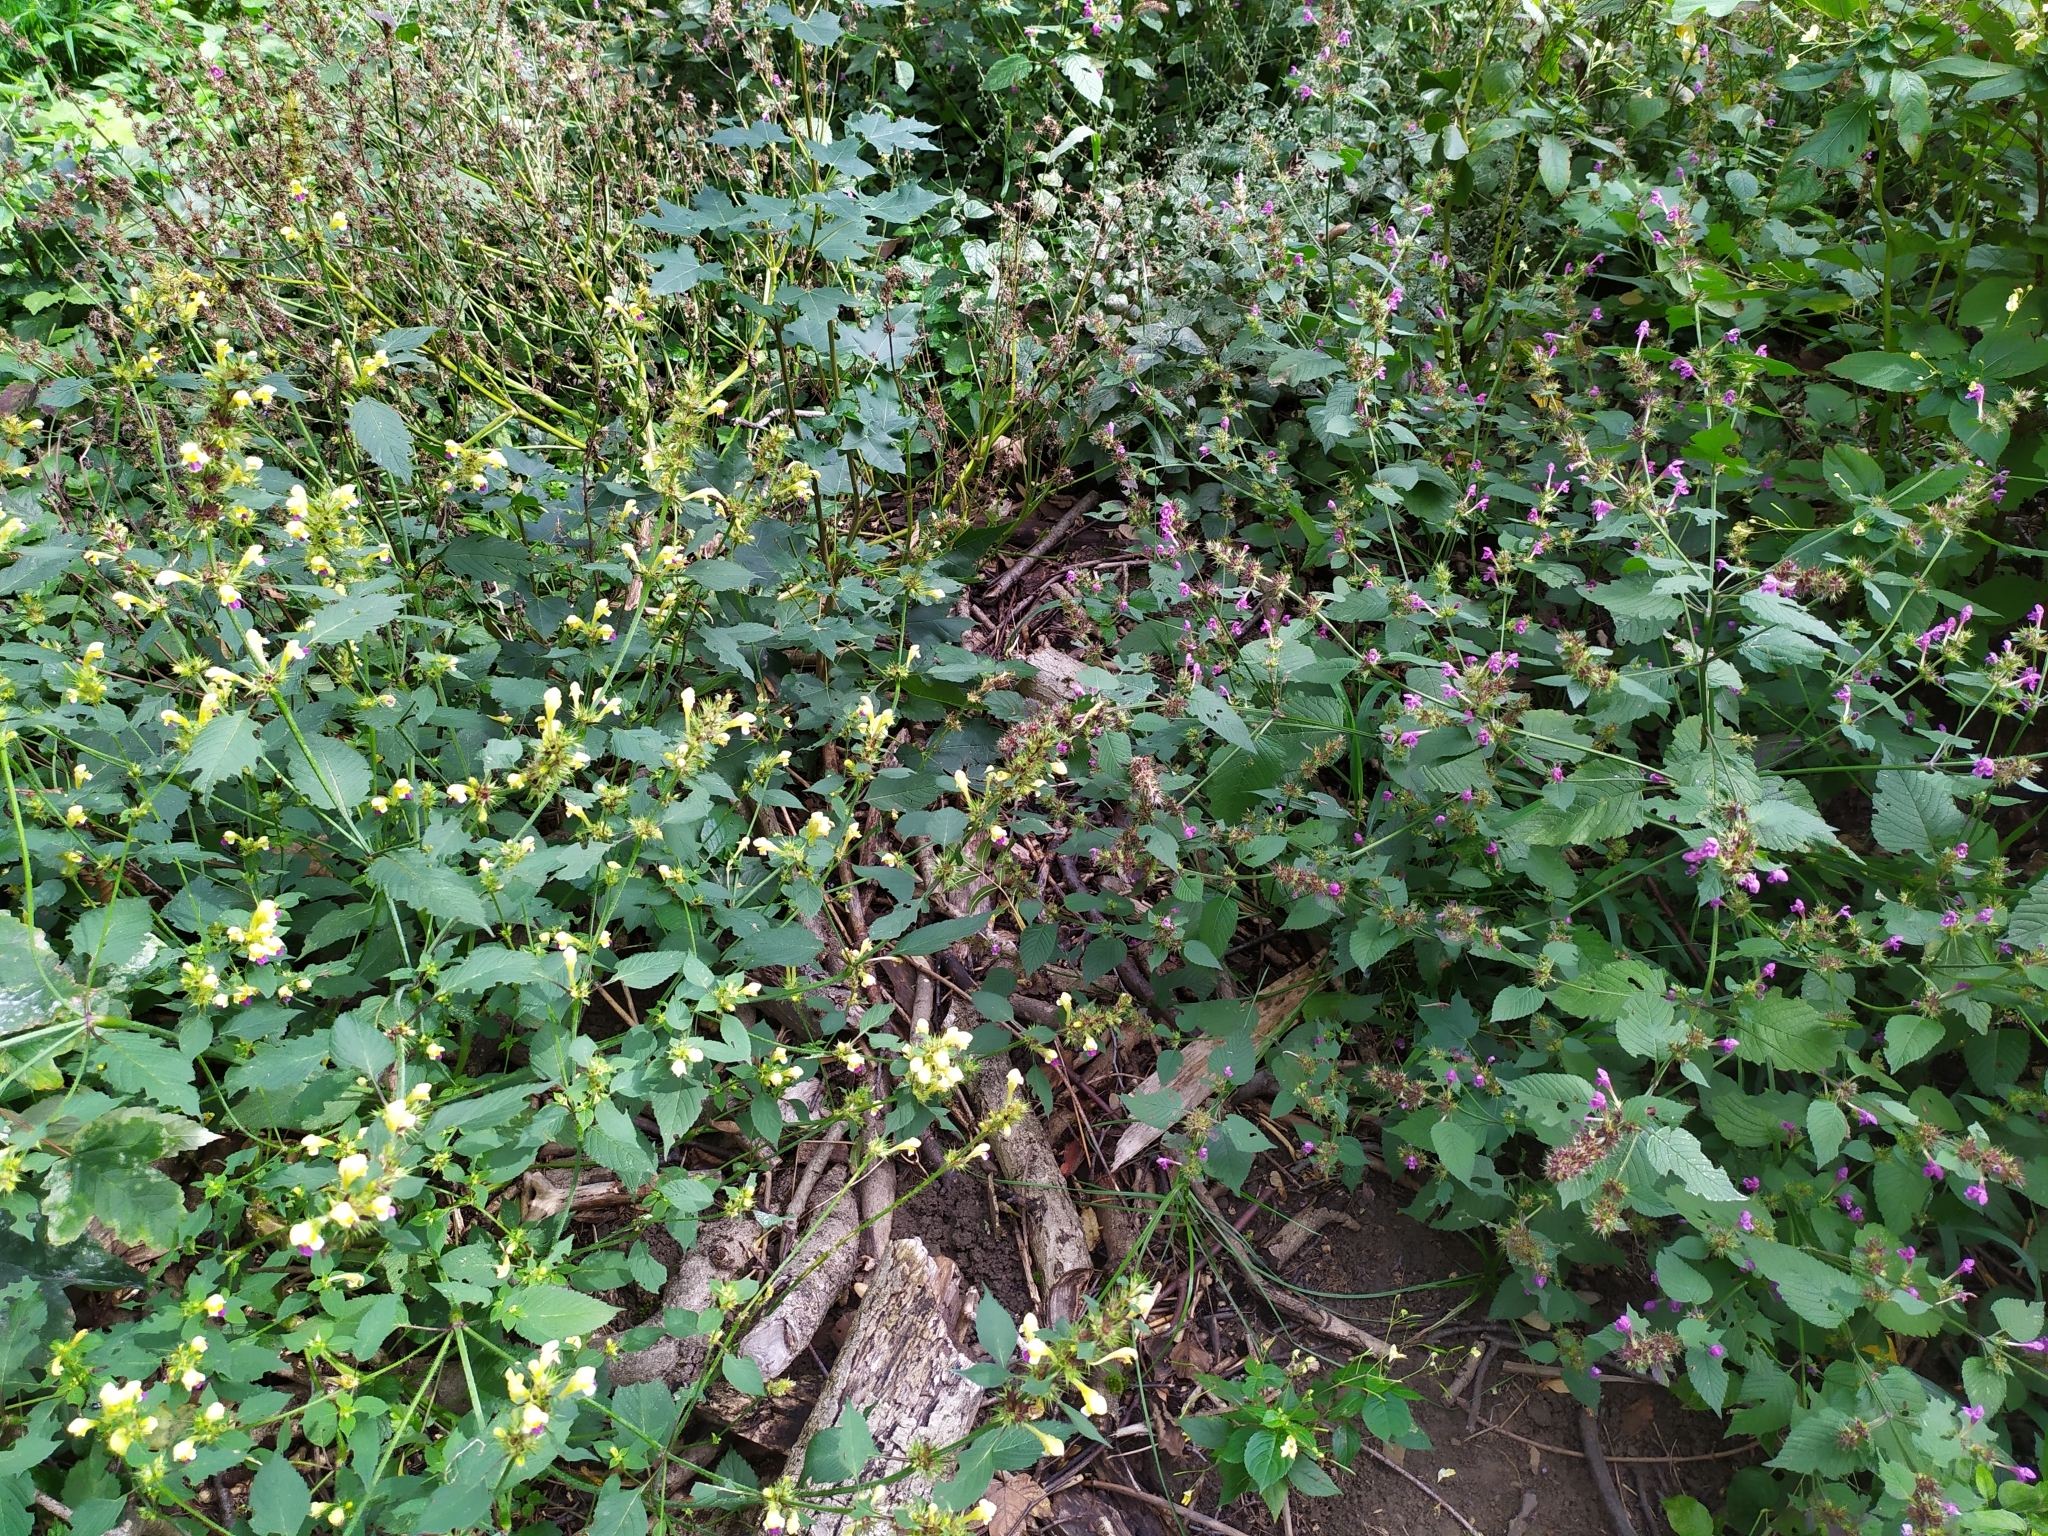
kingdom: Plantae
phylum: Tracheophyta
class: Magnoliopsida
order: Lamiales
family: Lamiaceae
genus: Galeopsis
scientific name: Galeopsis speciosa
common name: Large-flowered hemp-nettle
